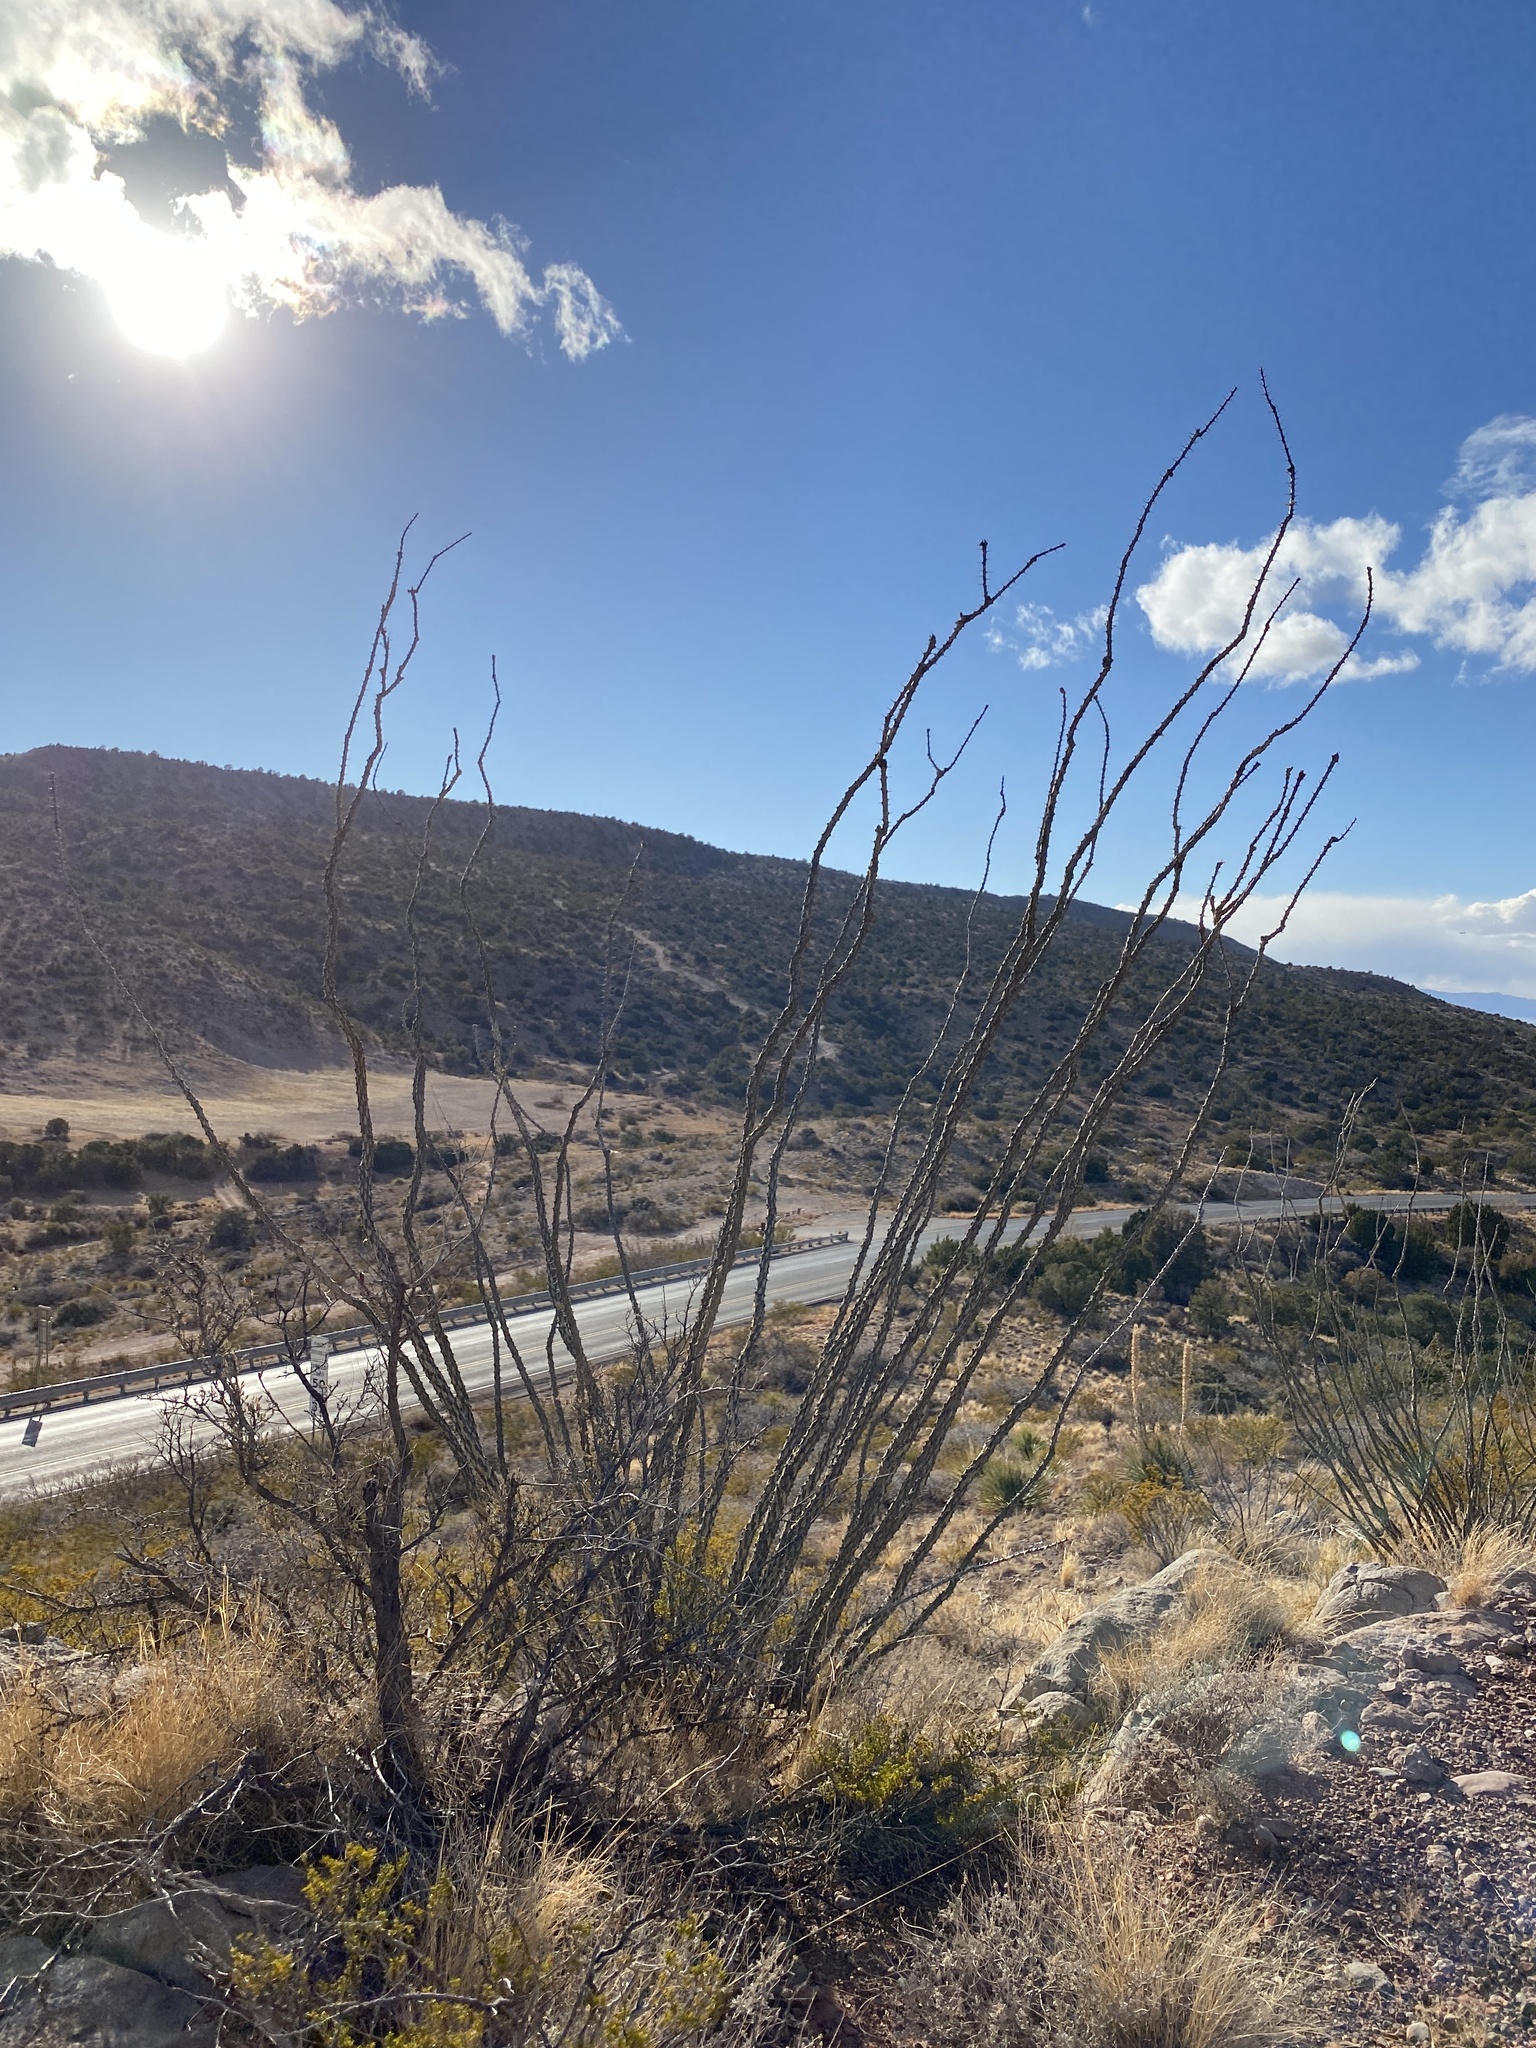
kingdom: Plantae
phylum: Tracheophyta
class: Magnoliopsida
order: Ericales
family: Fouquieriaceae
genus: Fouquieria
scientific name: Fouquieria splendens
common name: Vine-cactus
